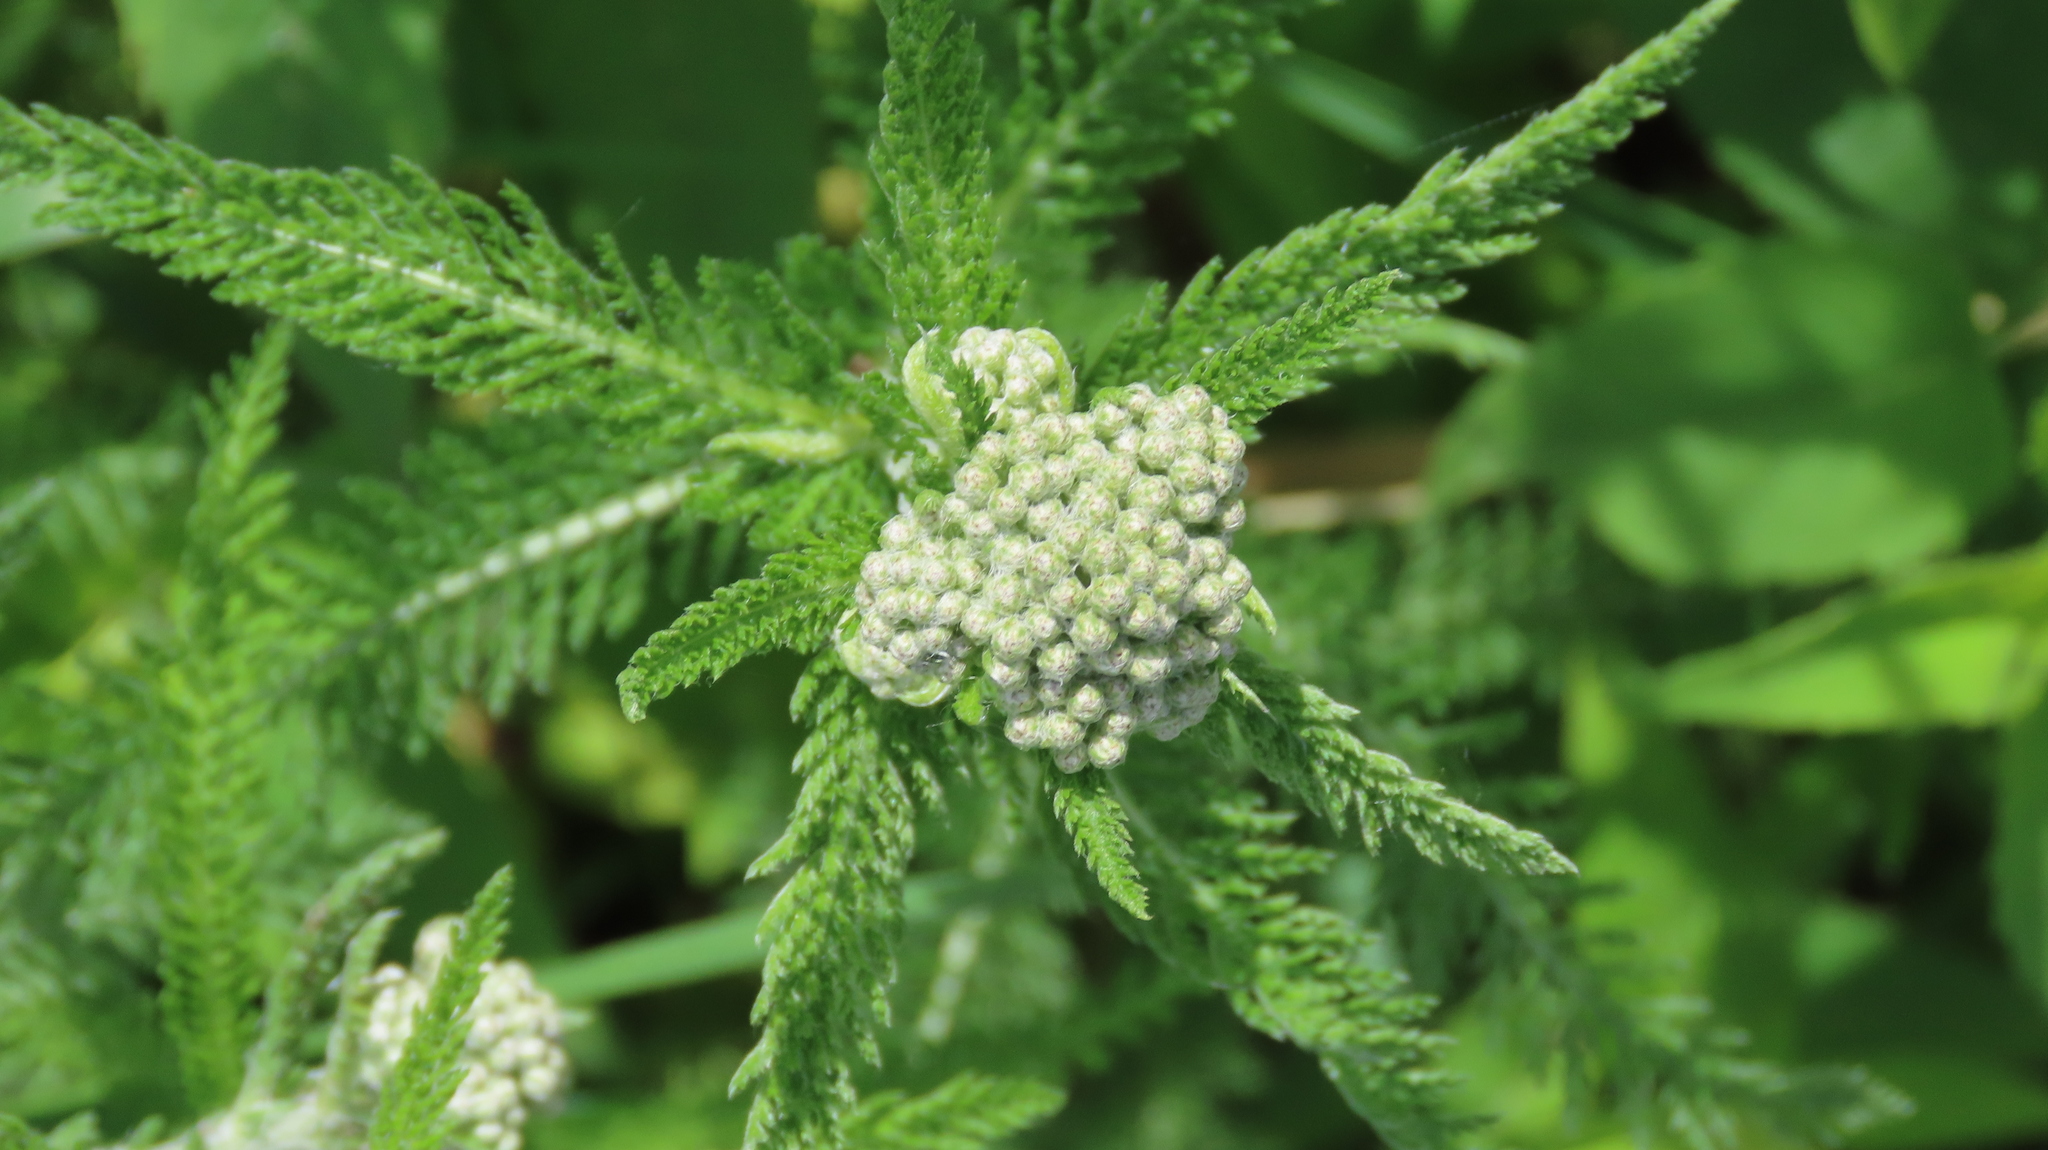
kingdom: Plantae
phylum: Tracheophyta
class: Magnoliopsida
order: Asterales
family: Asteraceae
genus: Achillea
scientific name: Achillea millefolium
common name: Yarrow
